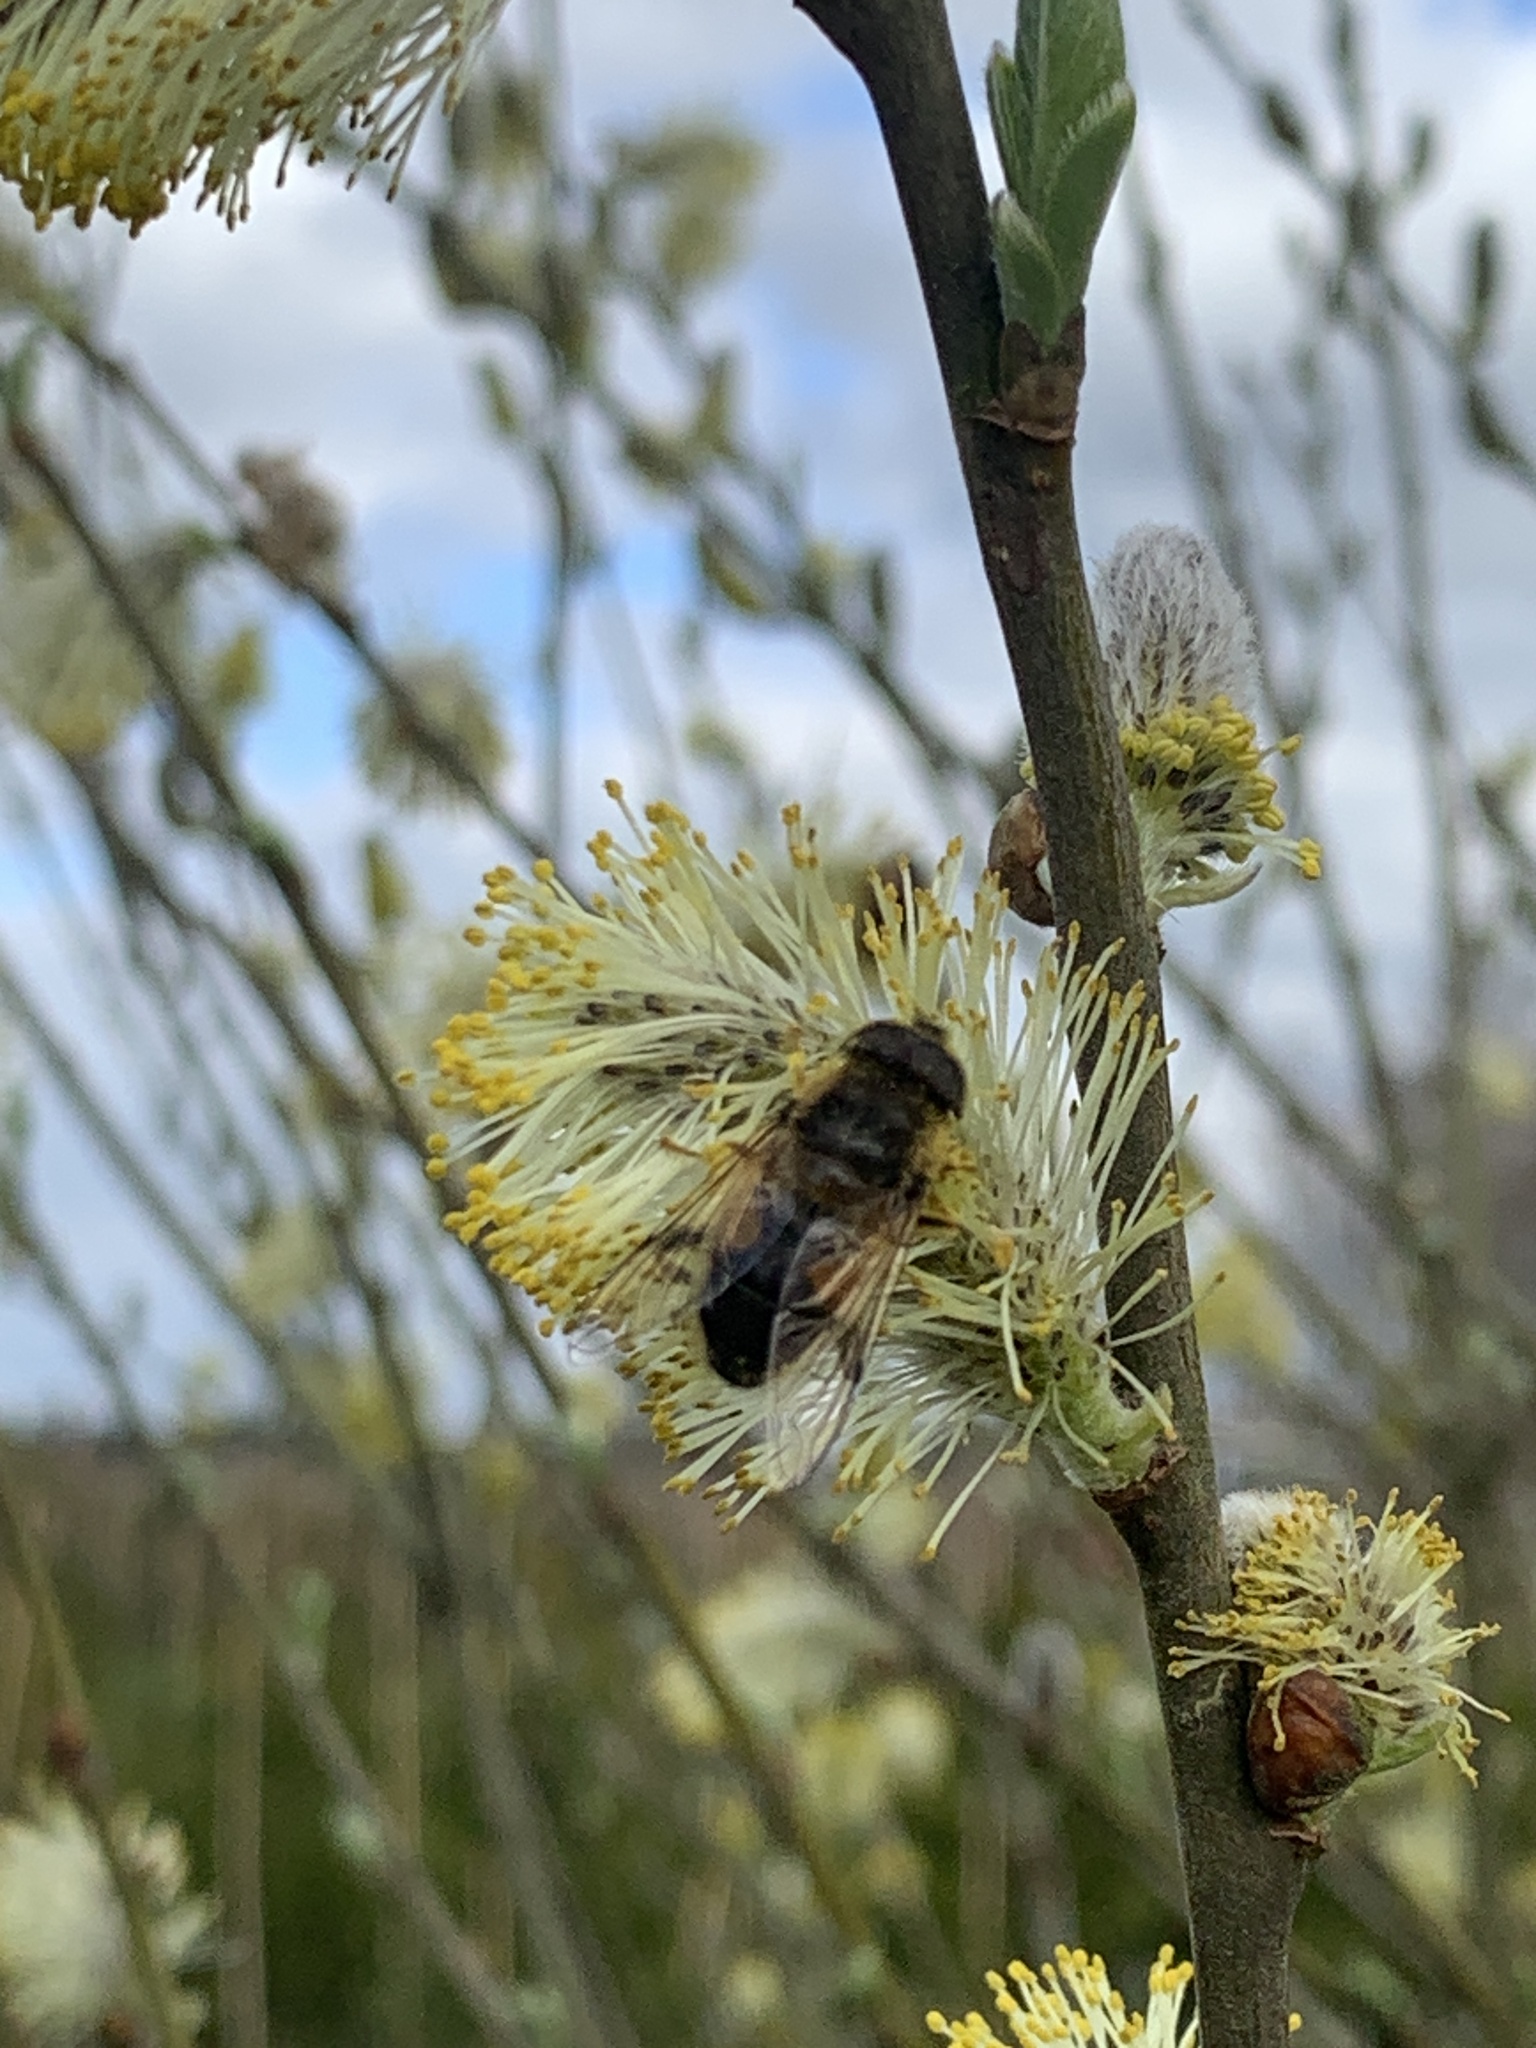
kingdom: Animalia
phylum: Arthropoda
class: Insecta
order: Diptera
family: Syrphidae
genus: Eristalis
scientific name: Eristalis pertinax
